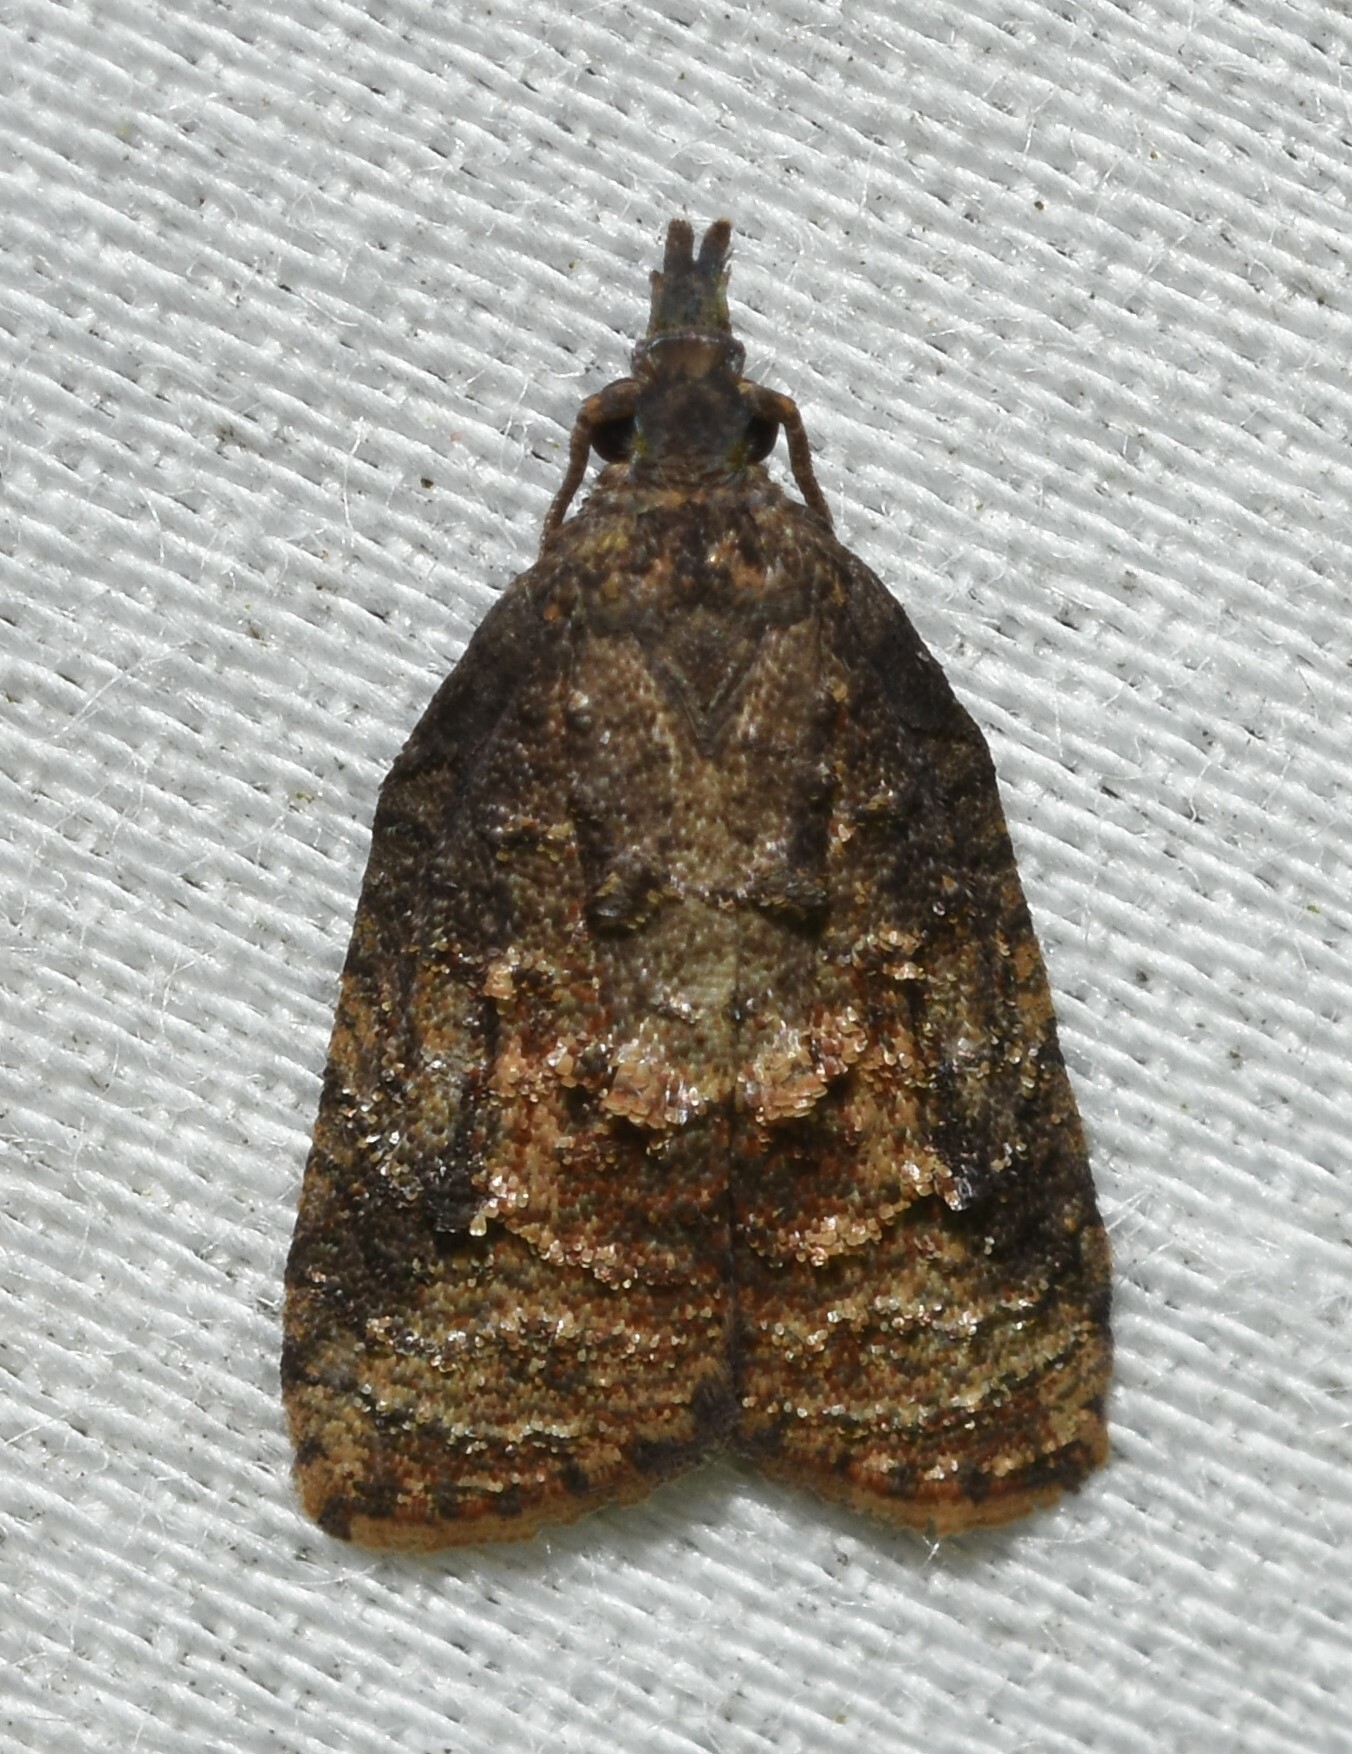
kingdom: Animalia
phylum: Arthropoda
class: Insecta
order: Lepidoptera
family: Tortricidae
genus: Platynota
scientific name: Platynota idaeusalis
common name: Tufted apple bud moth
